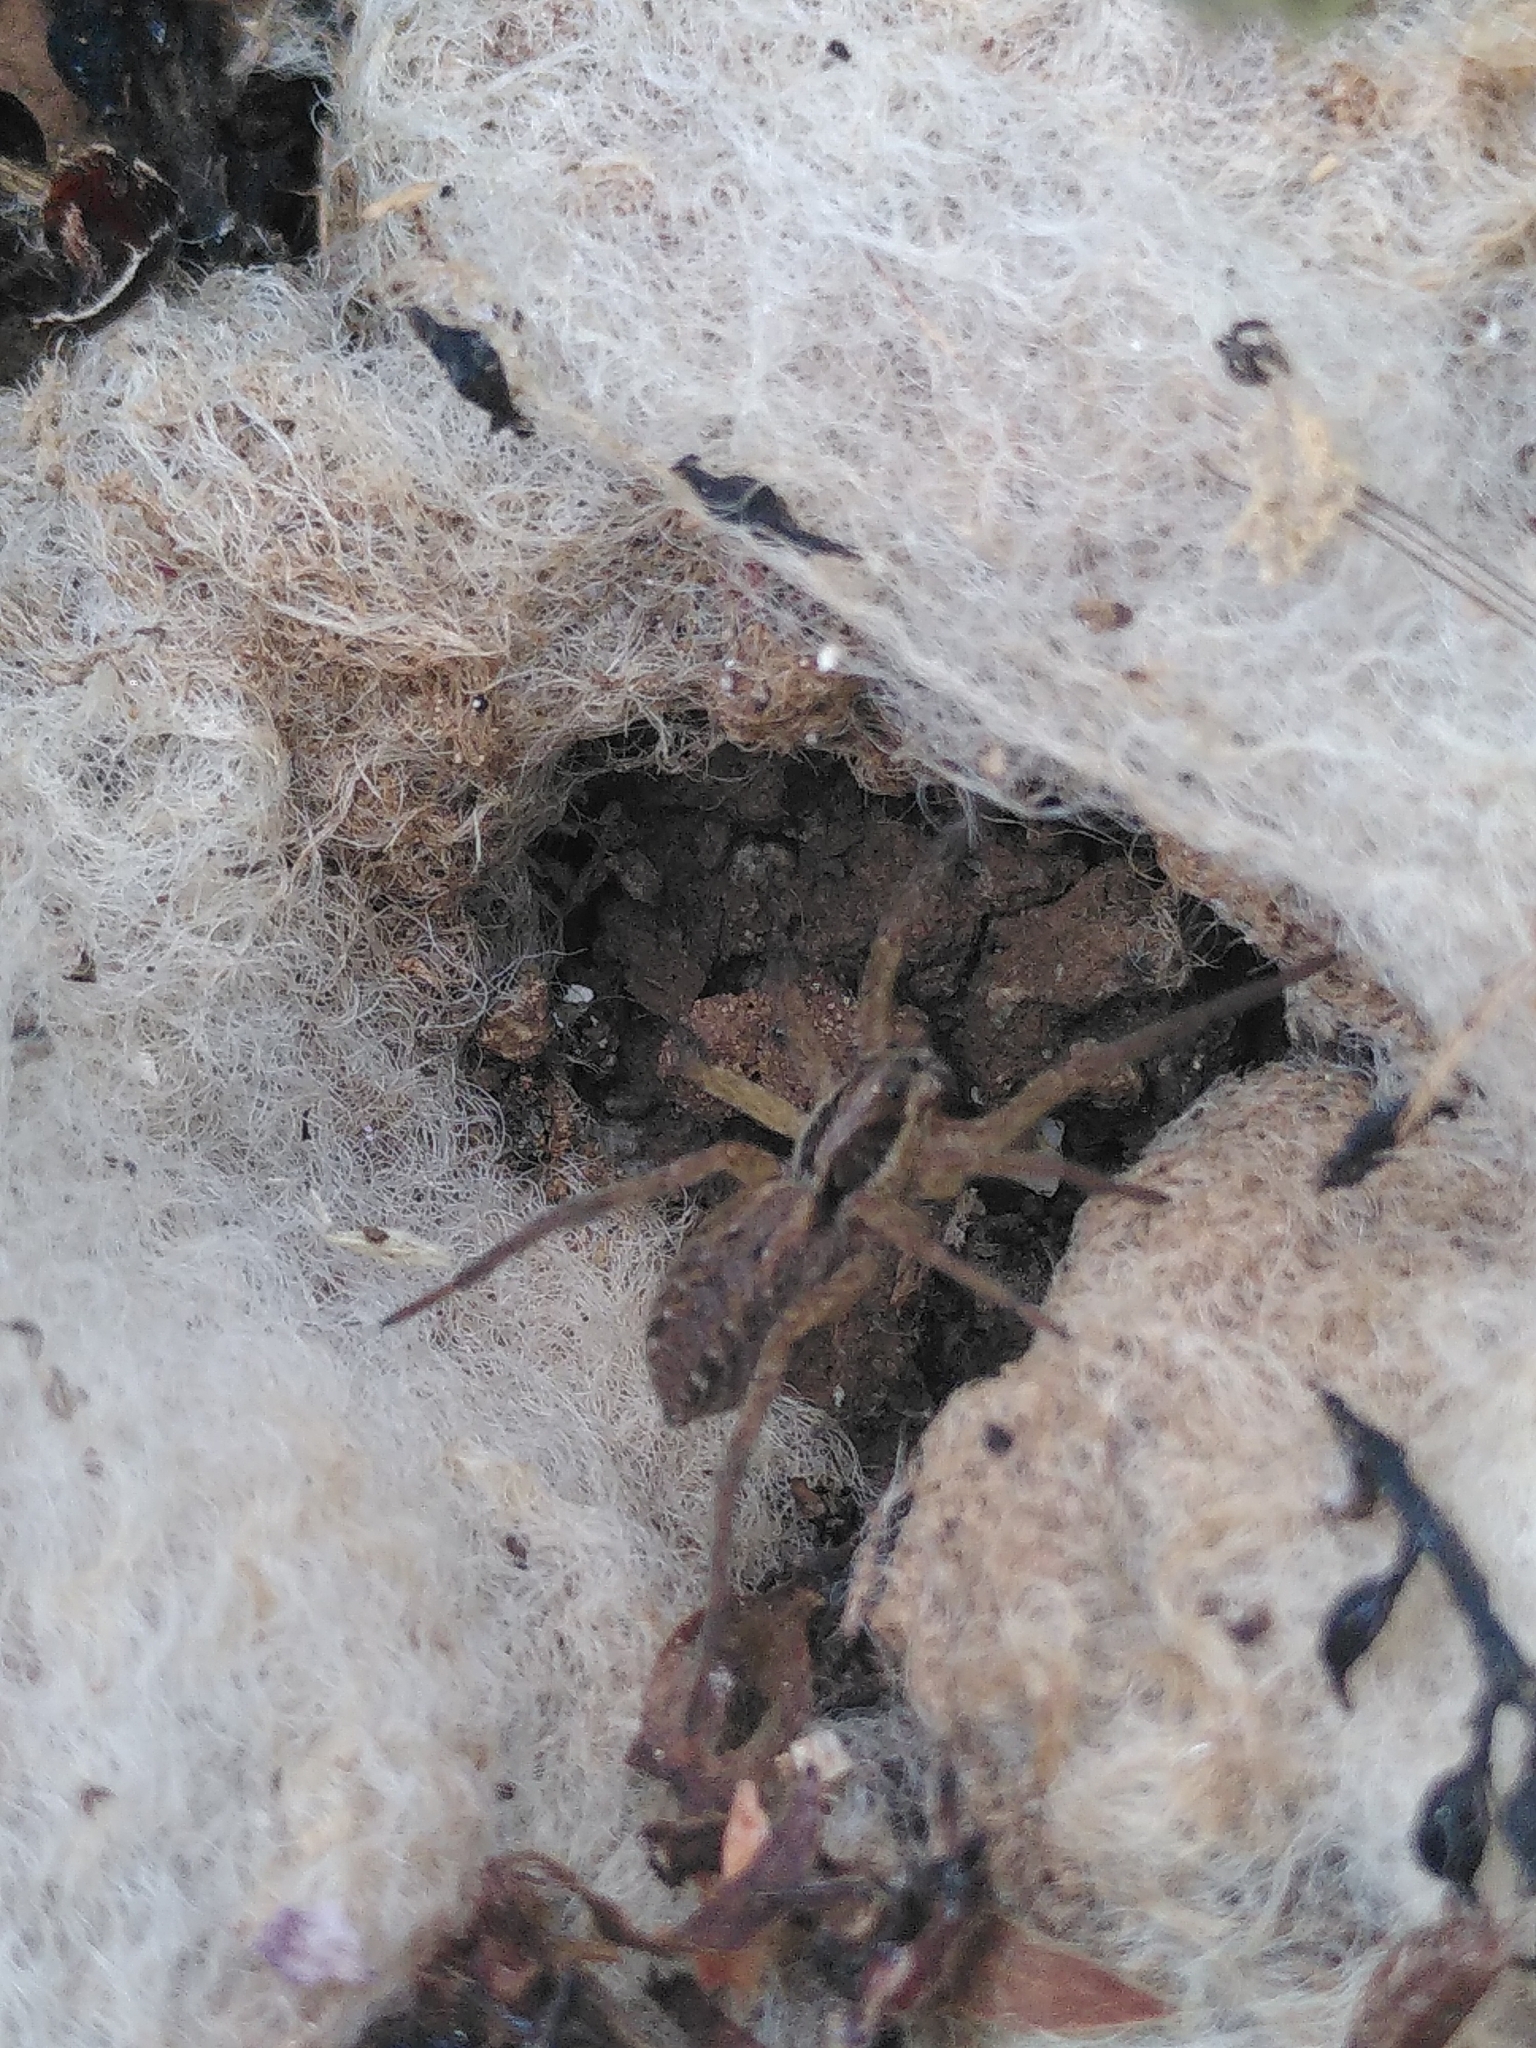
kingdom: Animalia
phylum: Arthropoda
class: Arachnida
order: Araneae
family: Lycosidae
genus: Hogna
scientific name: Hogna radiata
